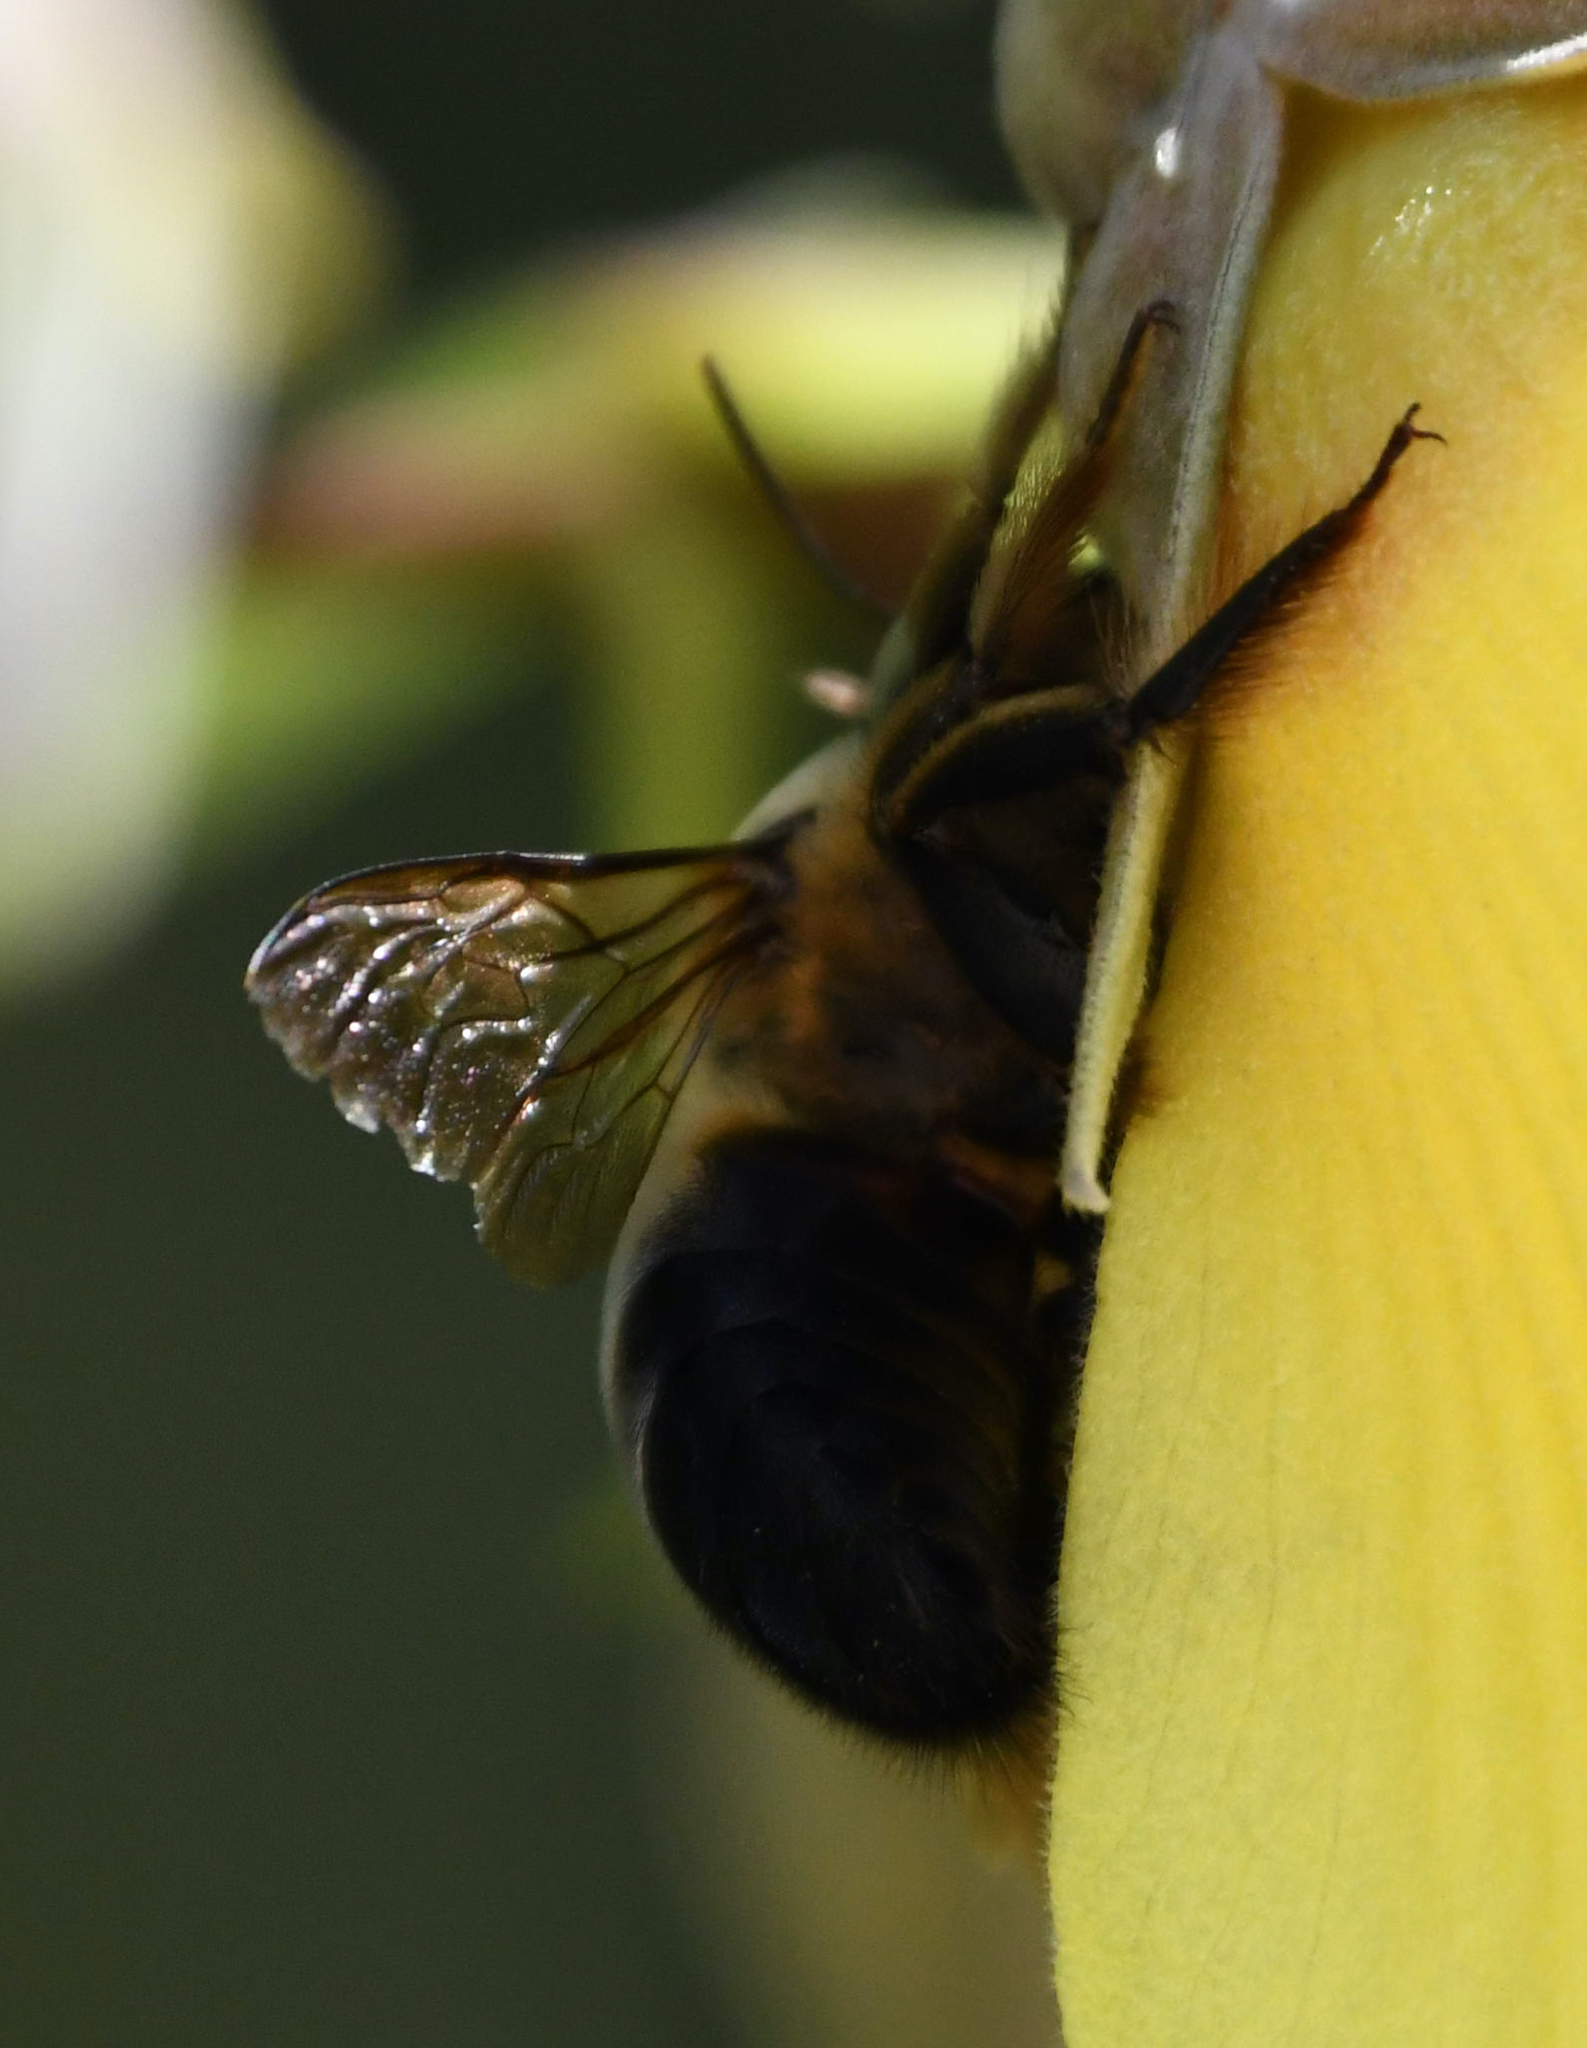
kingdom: Animalia
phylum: Arthropoda
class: Insecta
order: Hymenoptera
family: Apidae
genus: Xylocopa
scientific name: Xylocopa dejeanii
